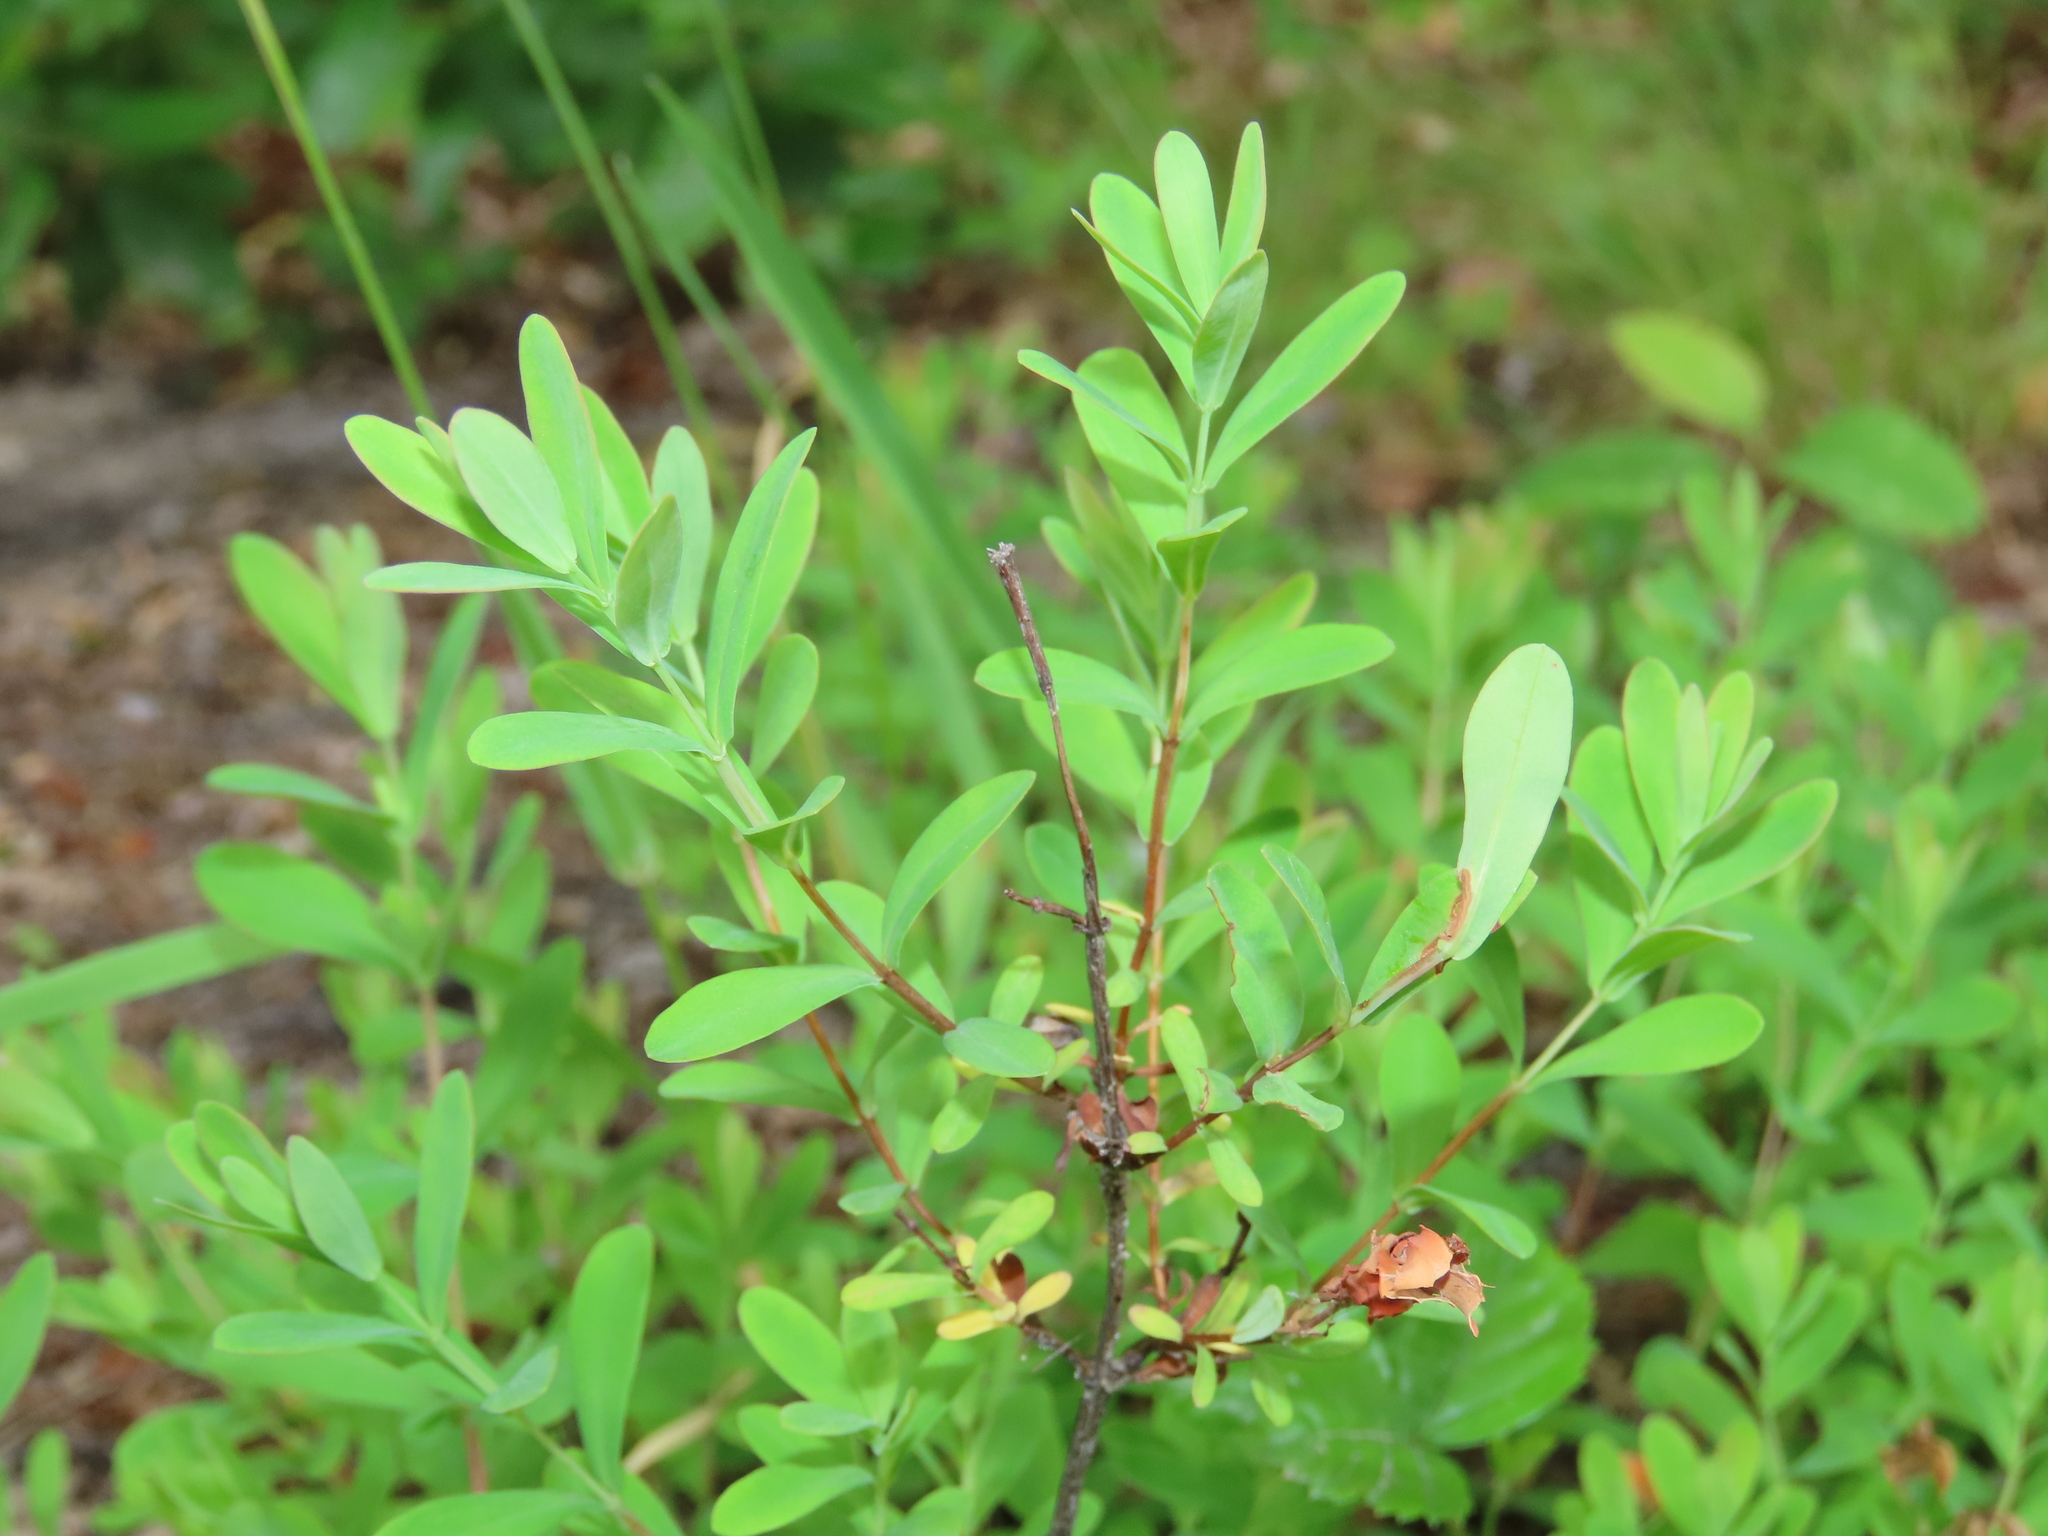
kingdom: Plantae
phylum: Tracheophyta
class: Magnoliopsida
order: Malpighiales
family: Hypericaceae
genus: Hypericum
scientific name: Hypericum hypericoides
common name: St. andrew's cross
